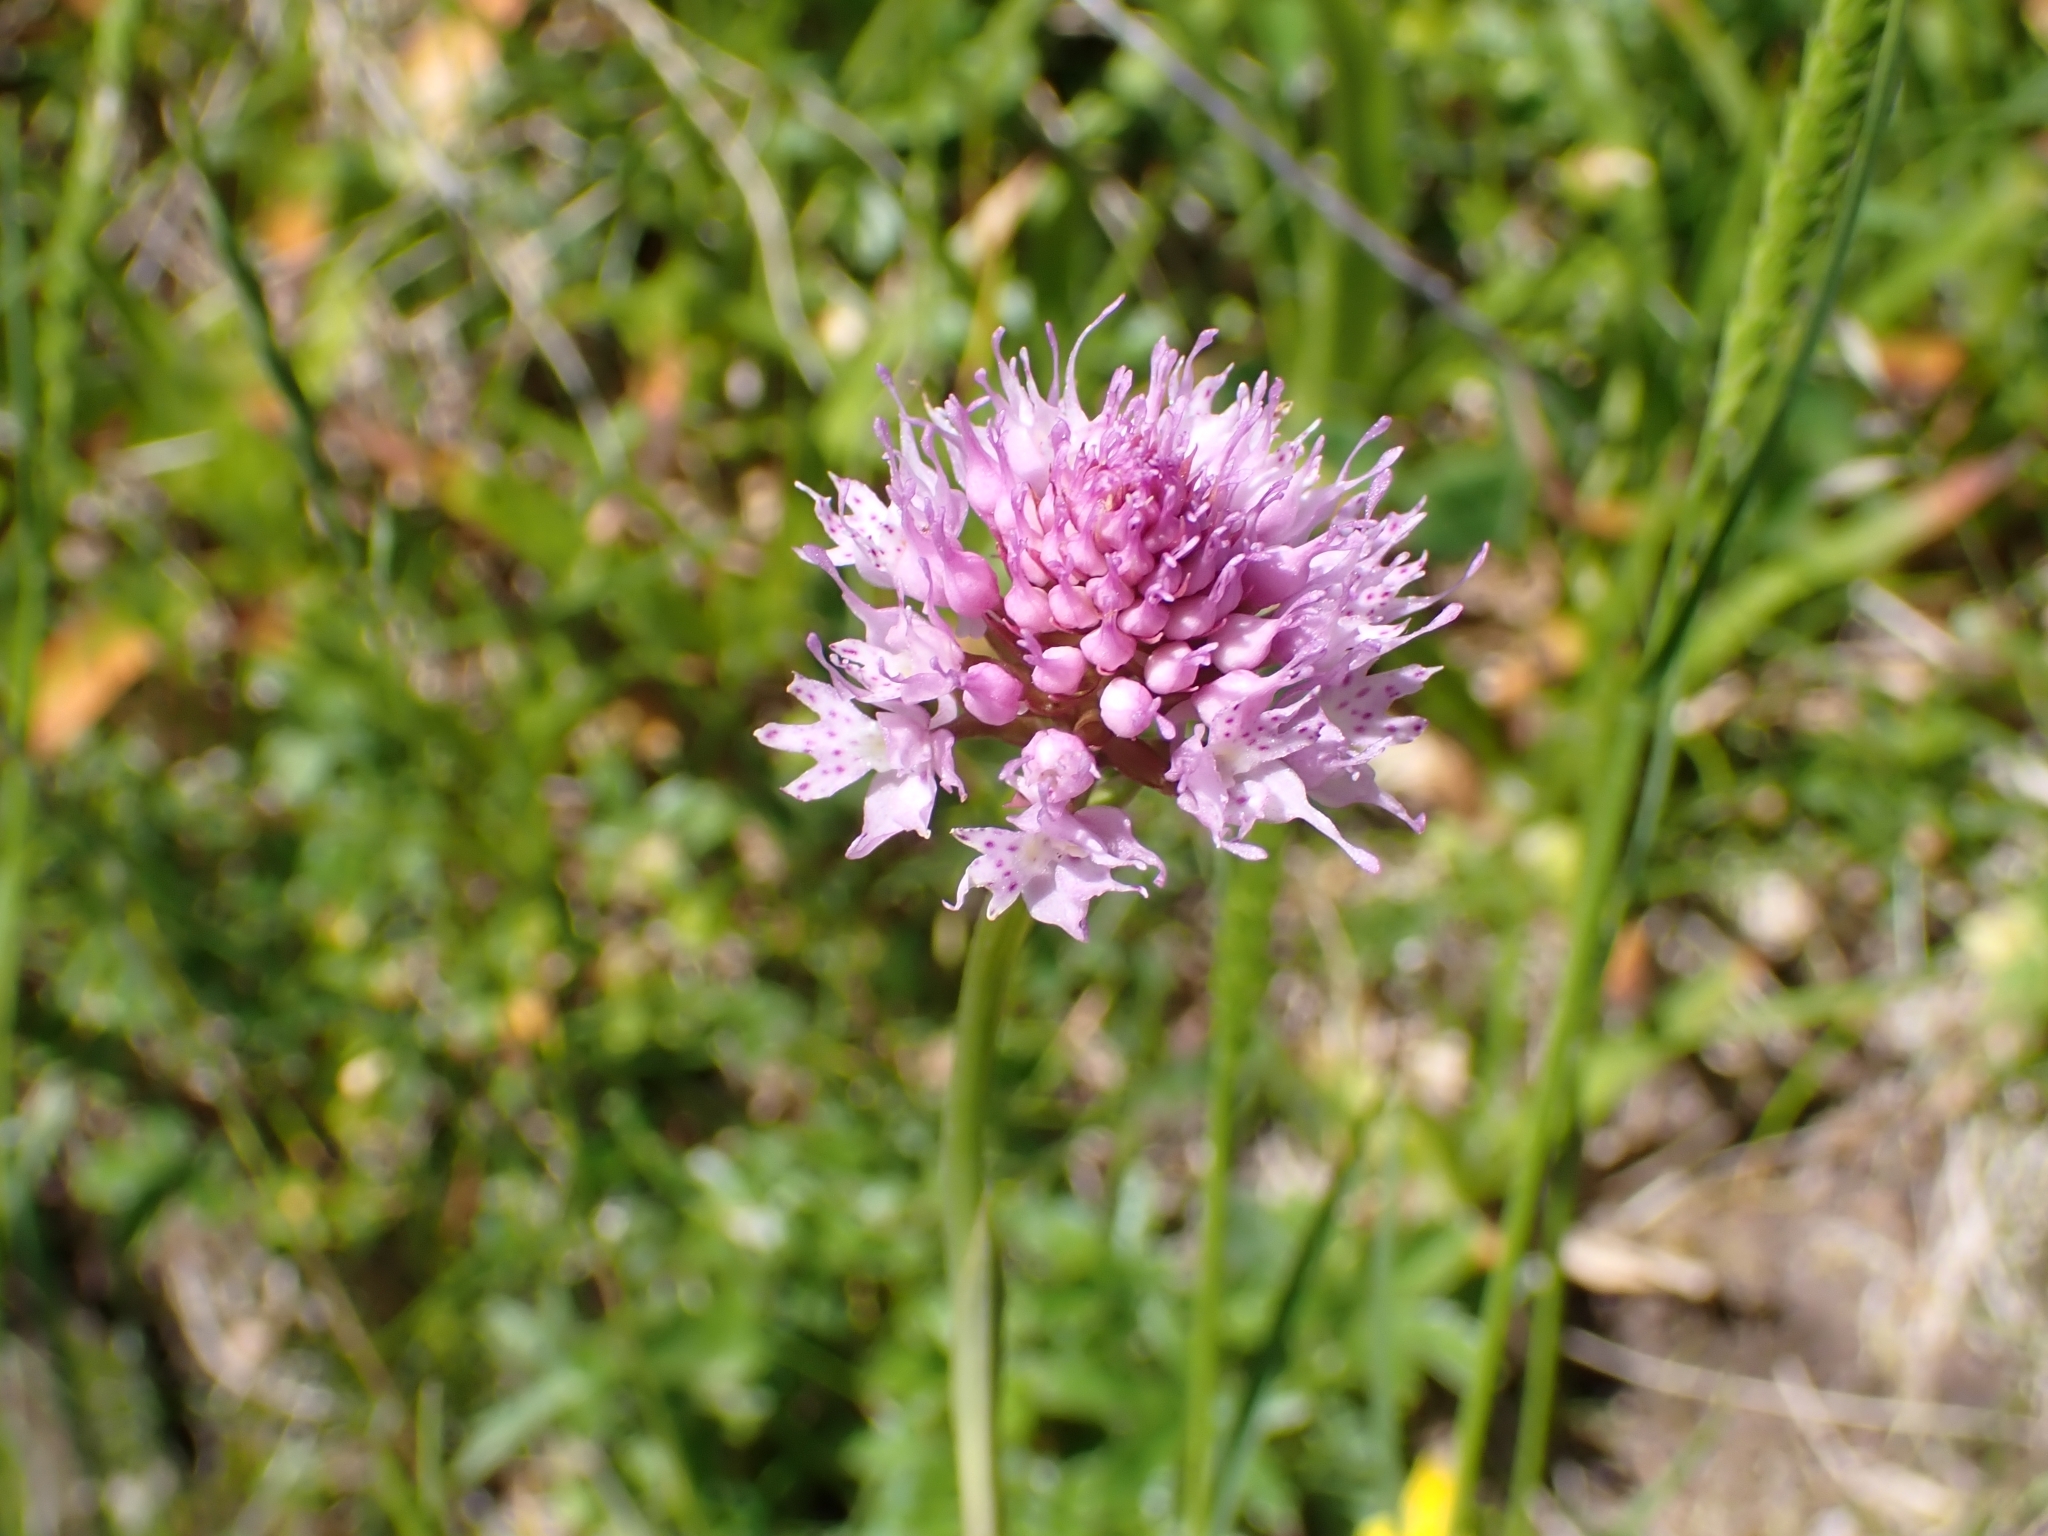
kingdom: Plantae
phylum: Tracheophyta
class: Liliopsida
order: Asparagales
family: Orchidaceae
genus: Traunsteinera
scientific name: Traunsteinera globosa
